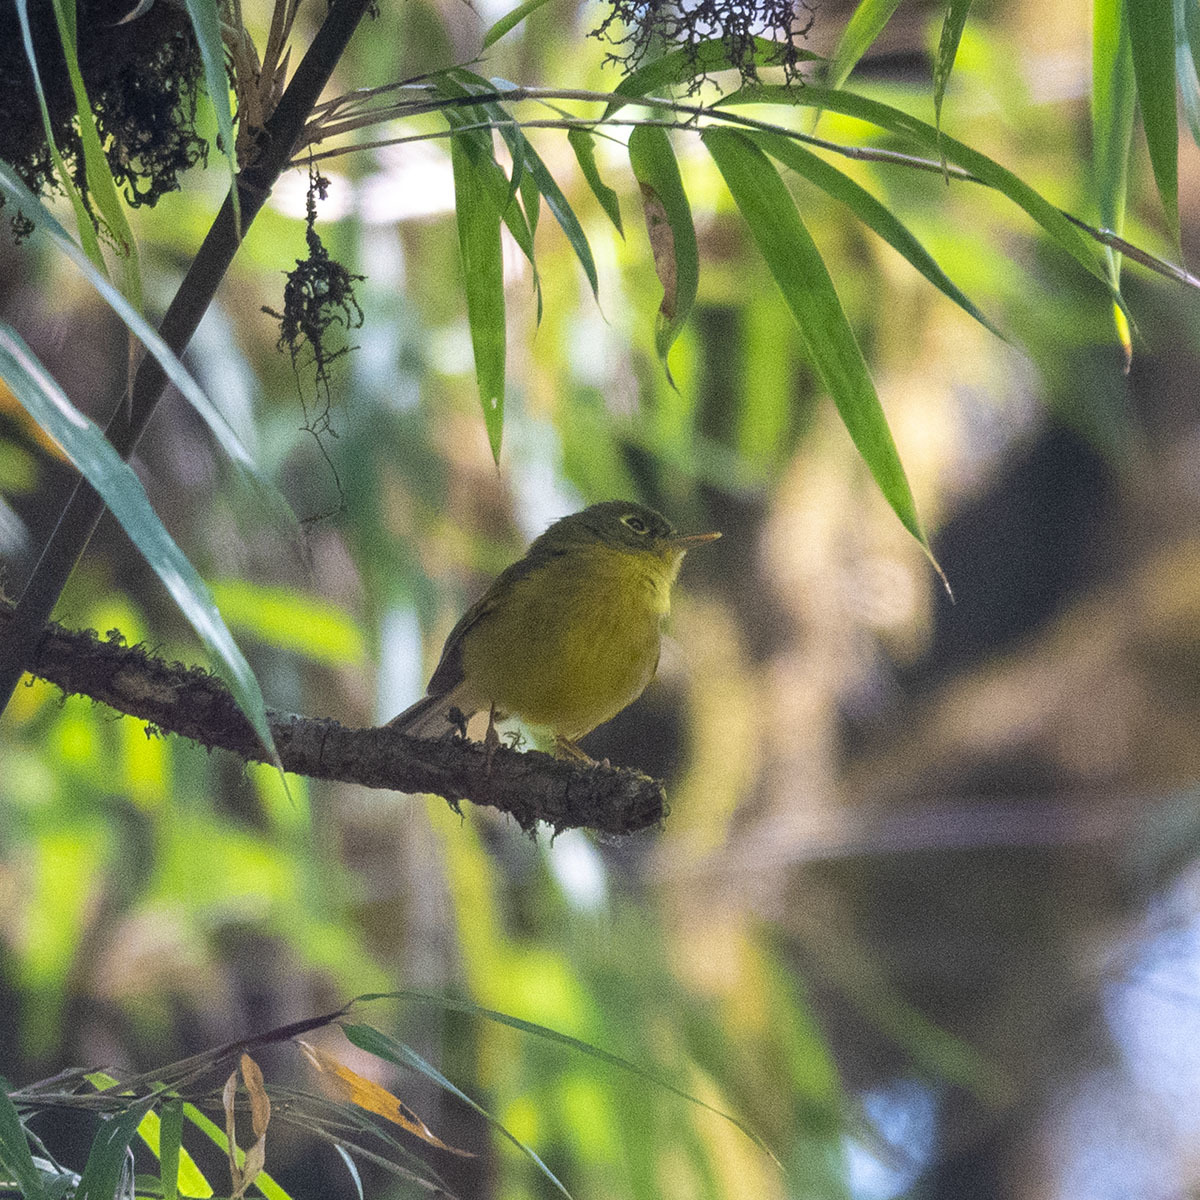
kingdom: Animalia
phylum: Chordata
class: Aves
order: Passeriformes
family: Phylloscopidae
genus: Seicercus
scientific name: Seicercus burkii
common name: Green-crowned warbler
